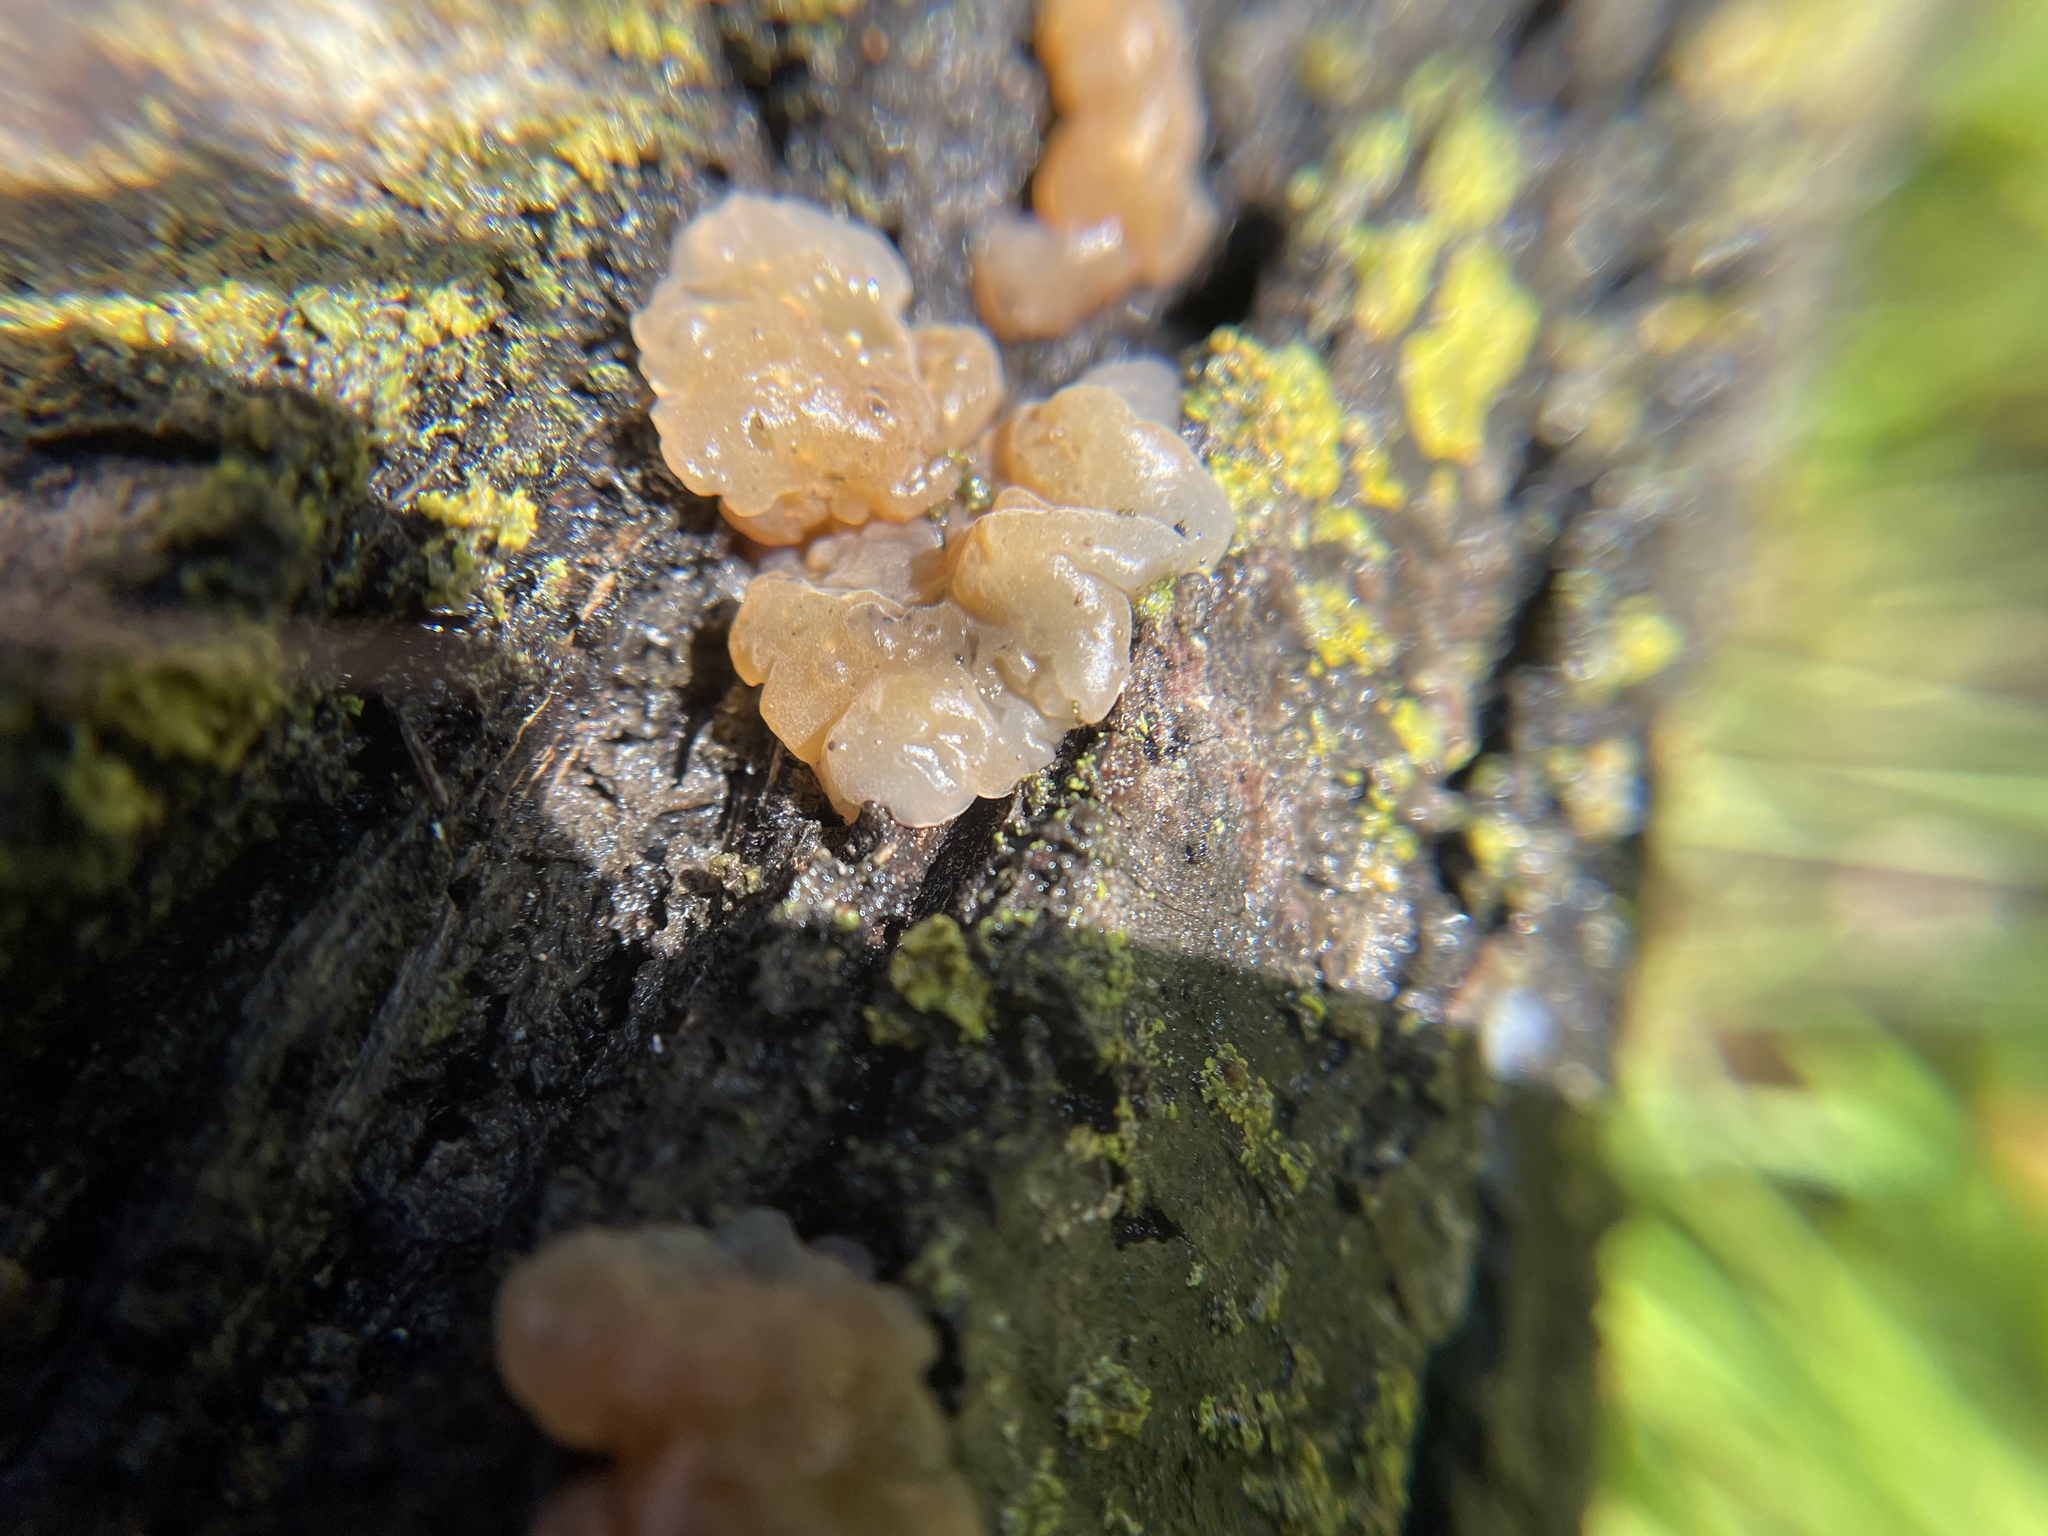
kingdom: Fungi
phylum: Basidiomycota
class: Agaricomycetes
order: Auriculariales
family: Hyaloriaceae
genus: Myxarium
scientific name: Myxarium nucleatum
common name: Crystal brain fungus
